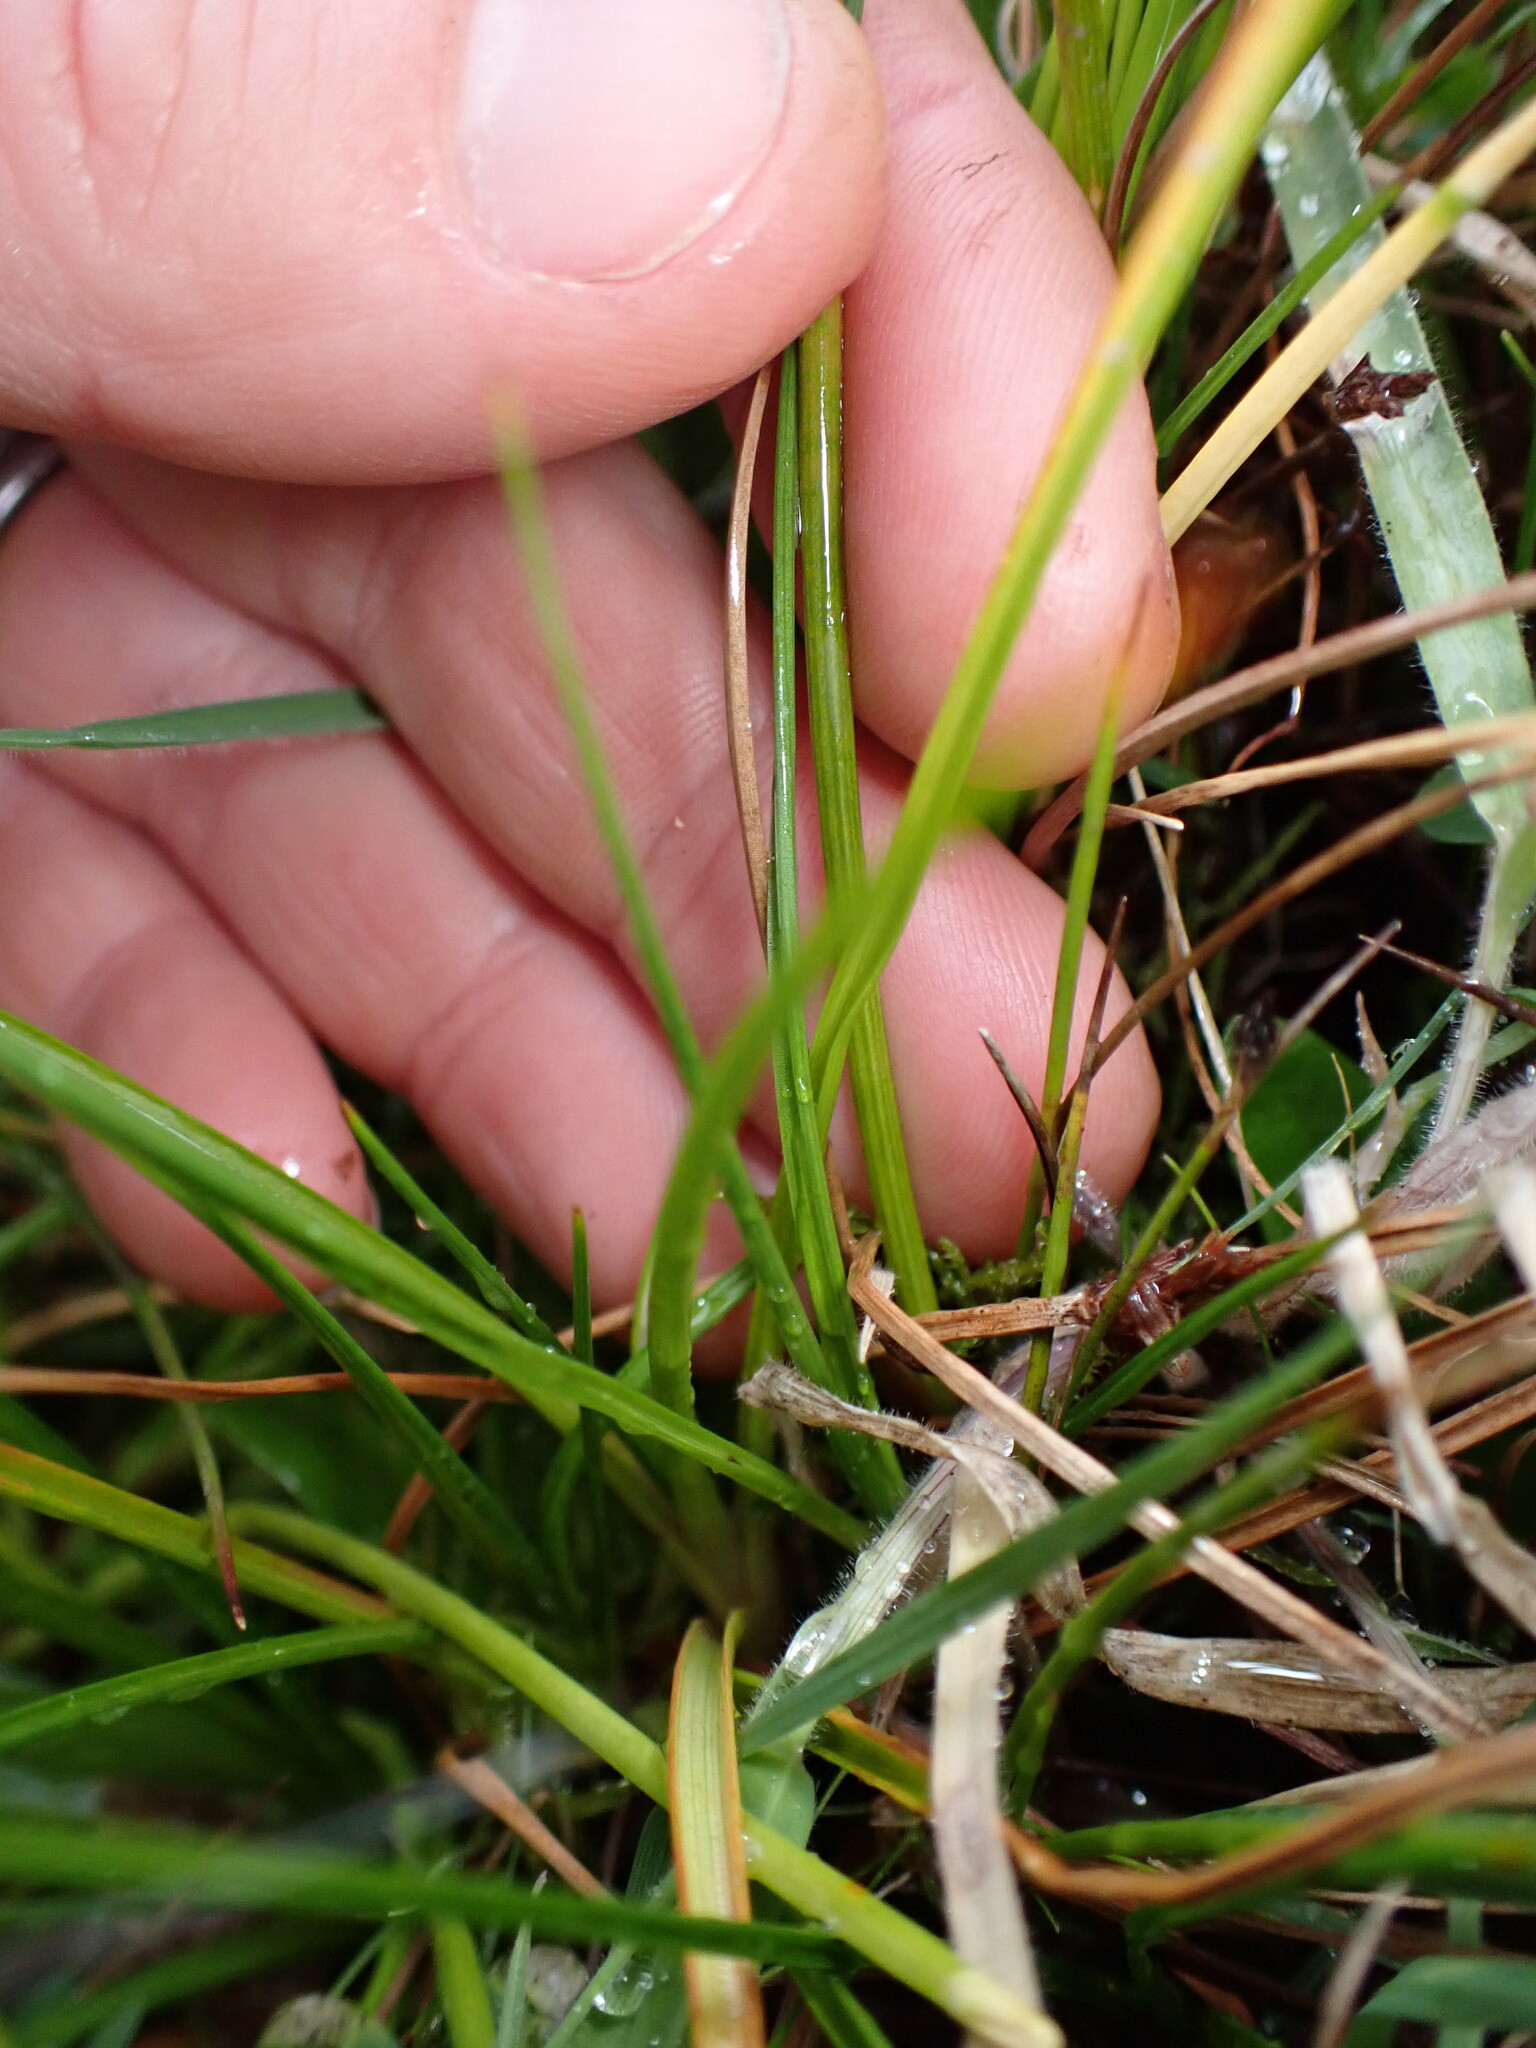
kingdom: Plantae
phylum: Tracheophyta
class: Liliopsida
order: Poales
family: Juncaceae
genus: Juncus
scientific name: Juncus caespiticius
